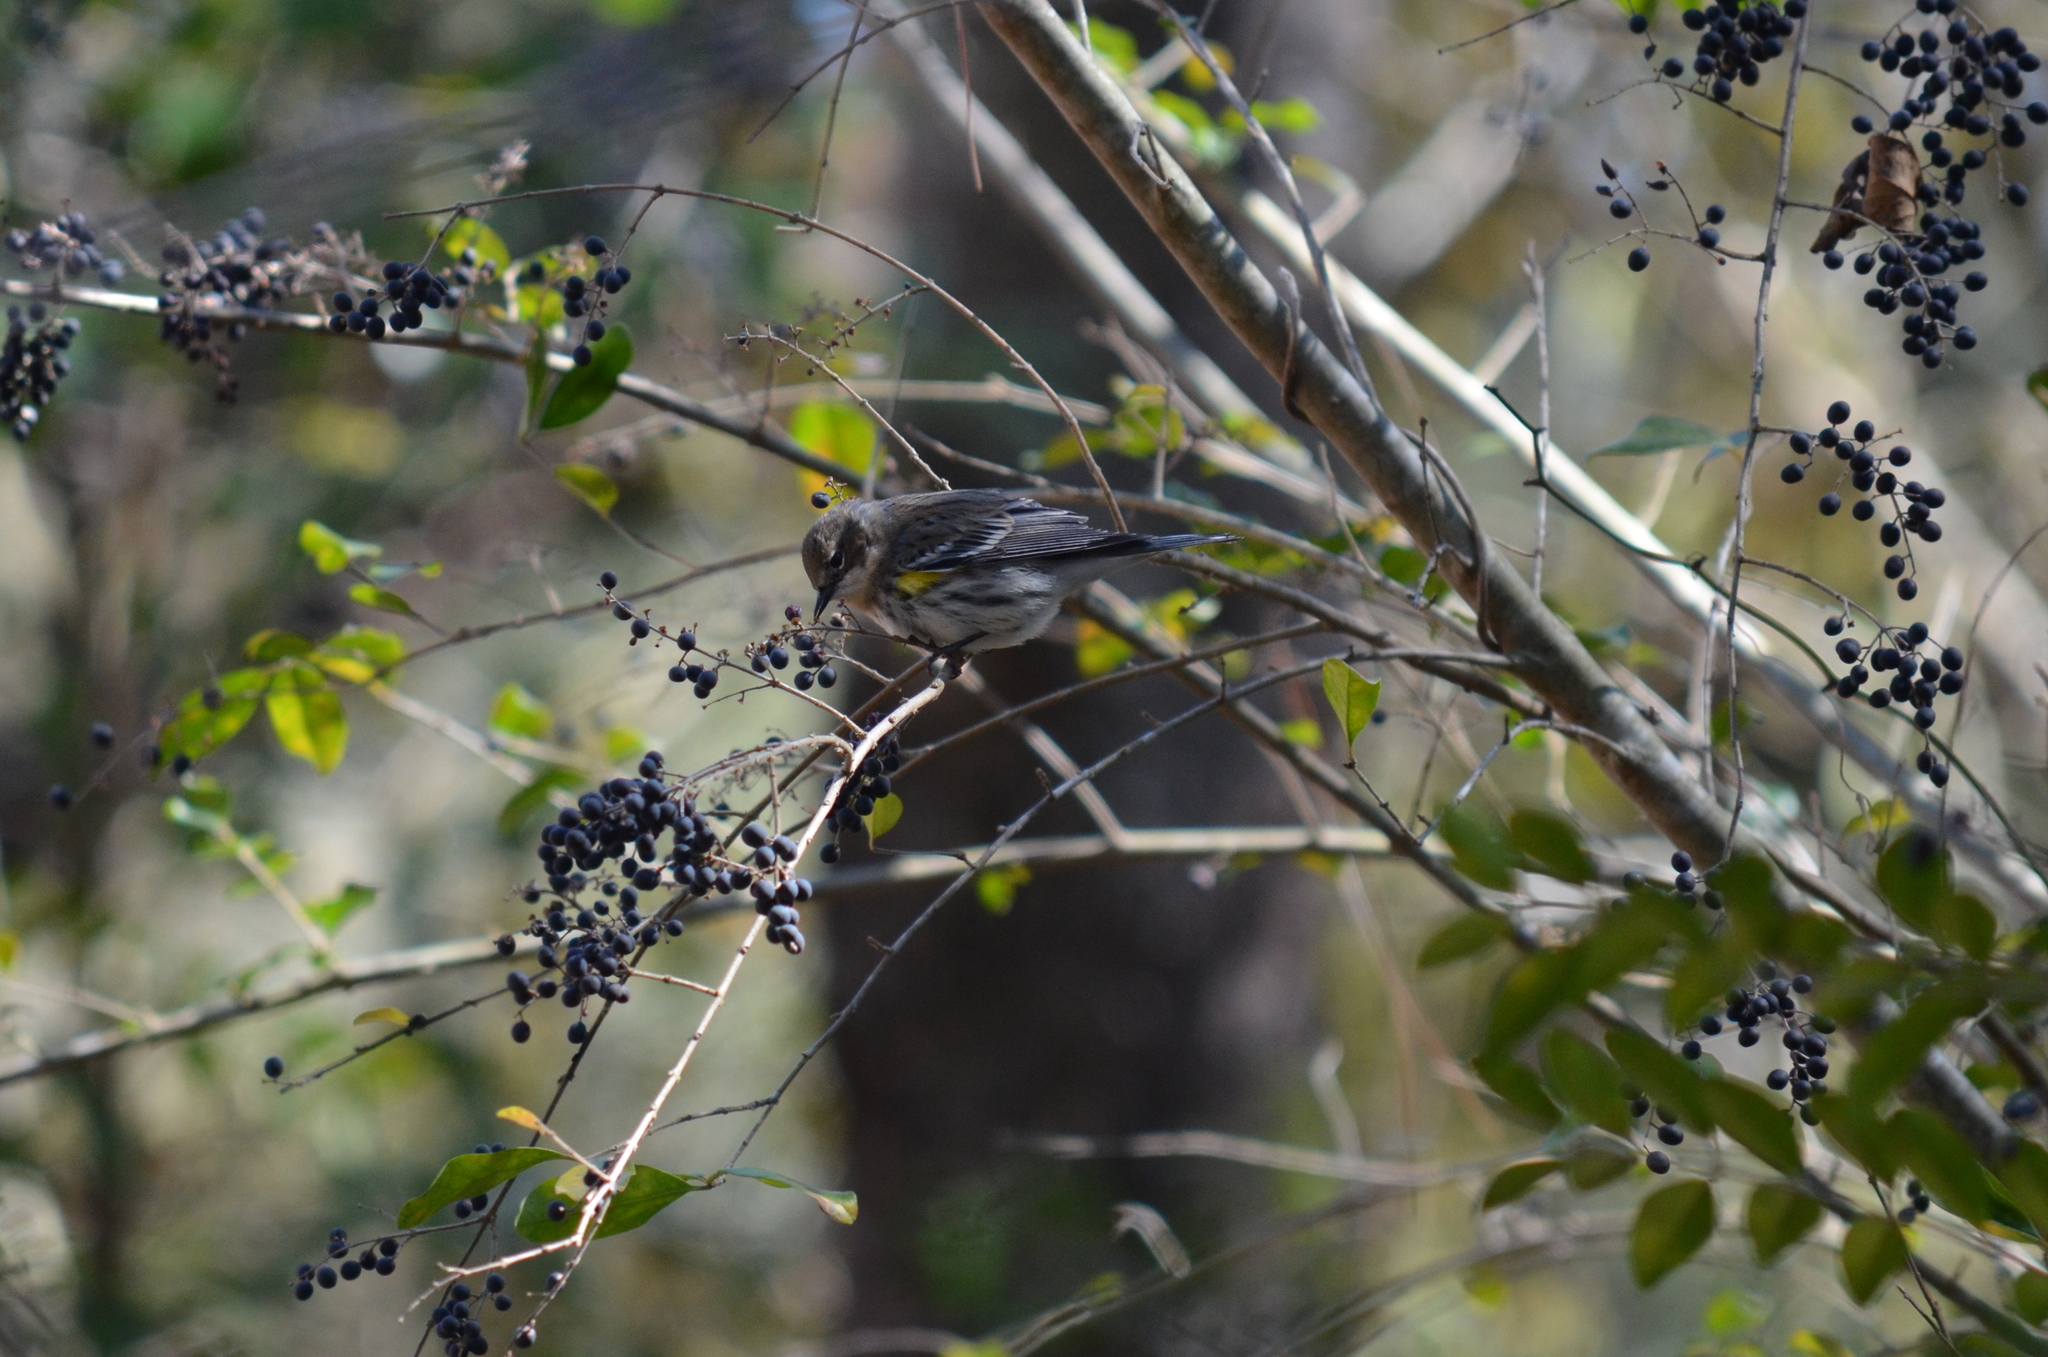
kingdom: Animalia
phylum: Chordata
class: Aves
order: Passeriformes
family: Parulidae
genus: Setophaga
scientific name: Setophaga coronata
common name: Myrtle warbler
